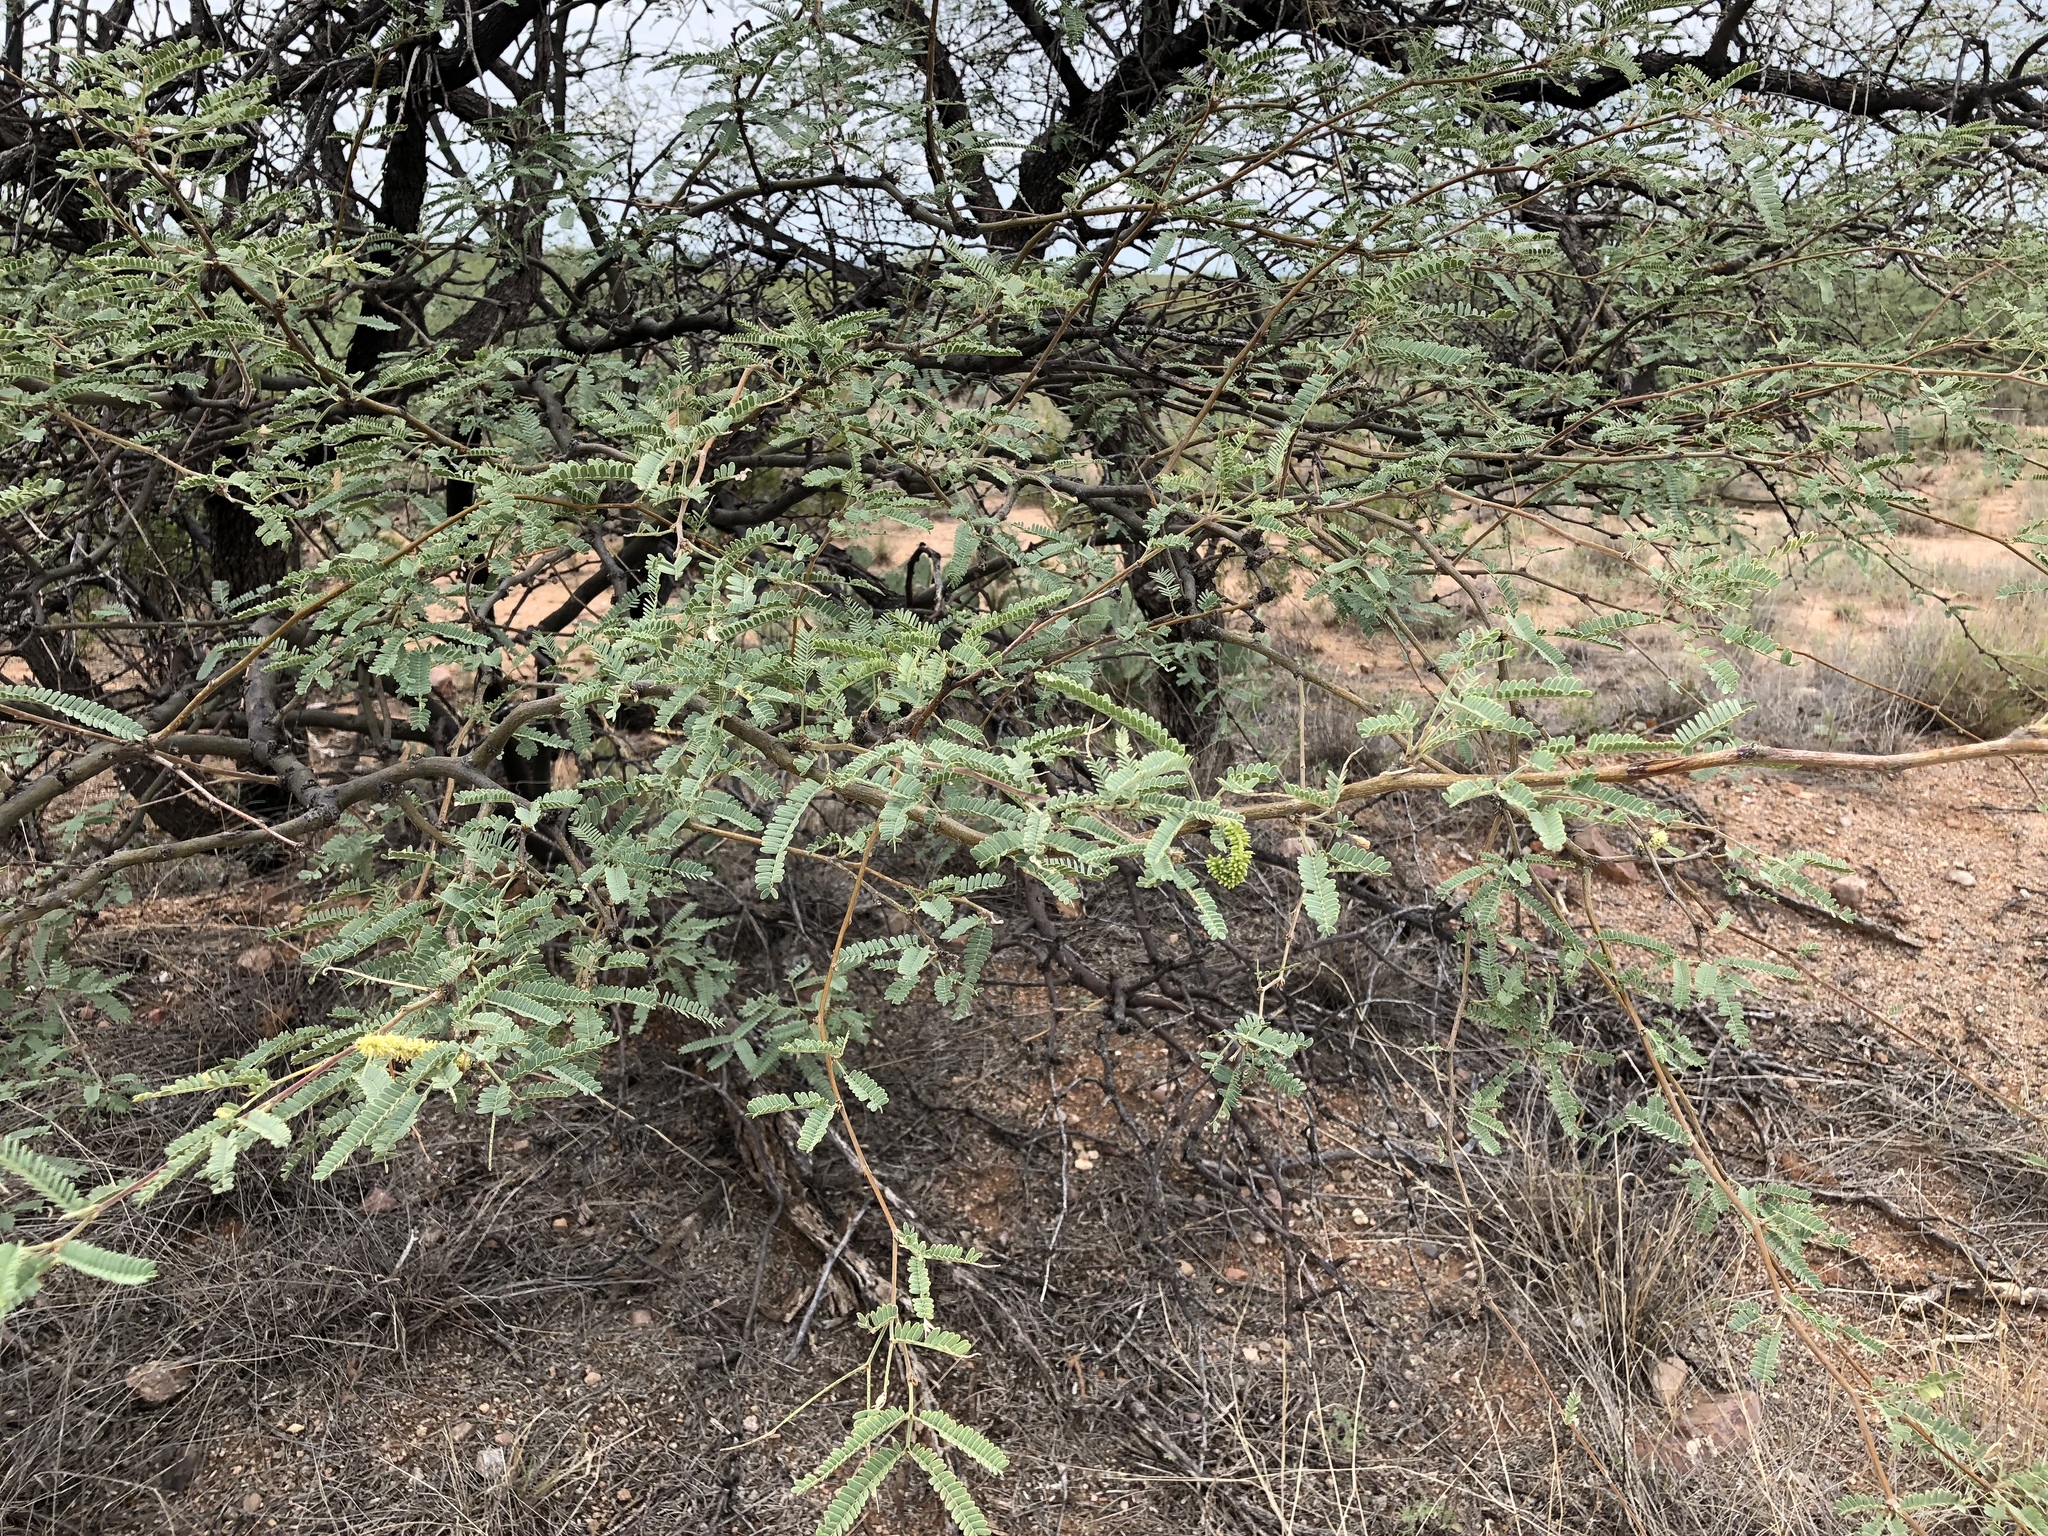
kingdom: Plantae
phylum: Tracheophyta
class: Magnoliopsida
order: Fabales
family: Fabaceae
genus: Prosopis
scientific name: Prosopis velutina
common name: Velvet mesquite
